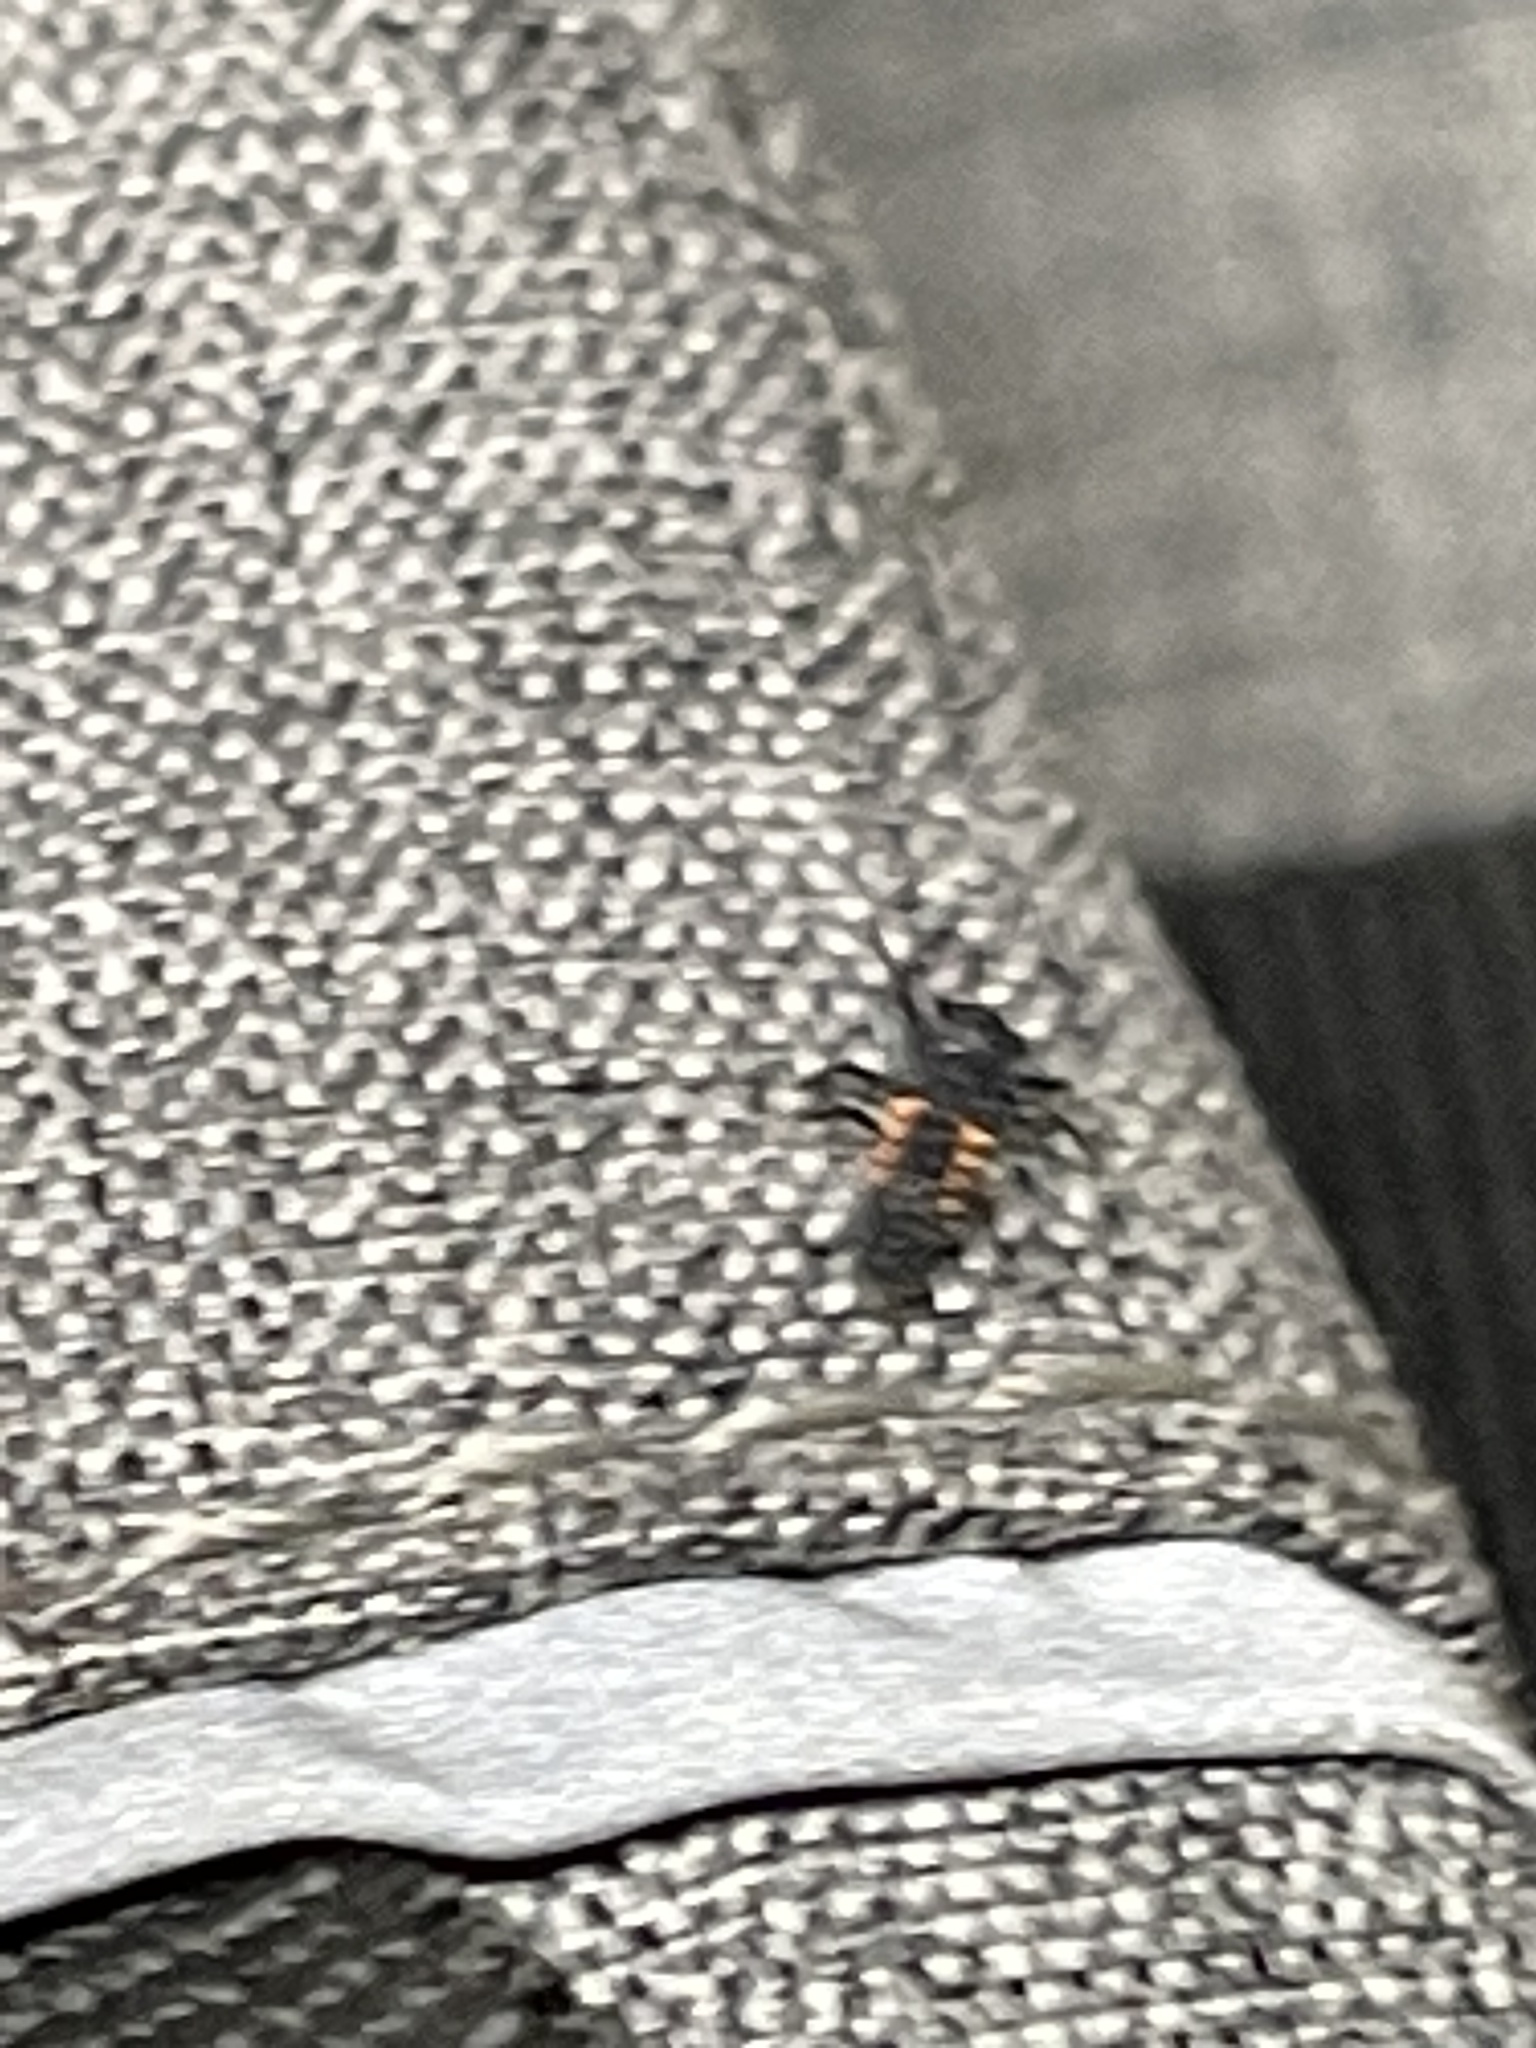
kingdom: Animalia
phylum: Arthropoda
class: Insecta
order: Coleoptera
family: Coccinellidae
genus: Harmonia
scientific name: Harmonia axyridis
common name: Harlequin ladybird
